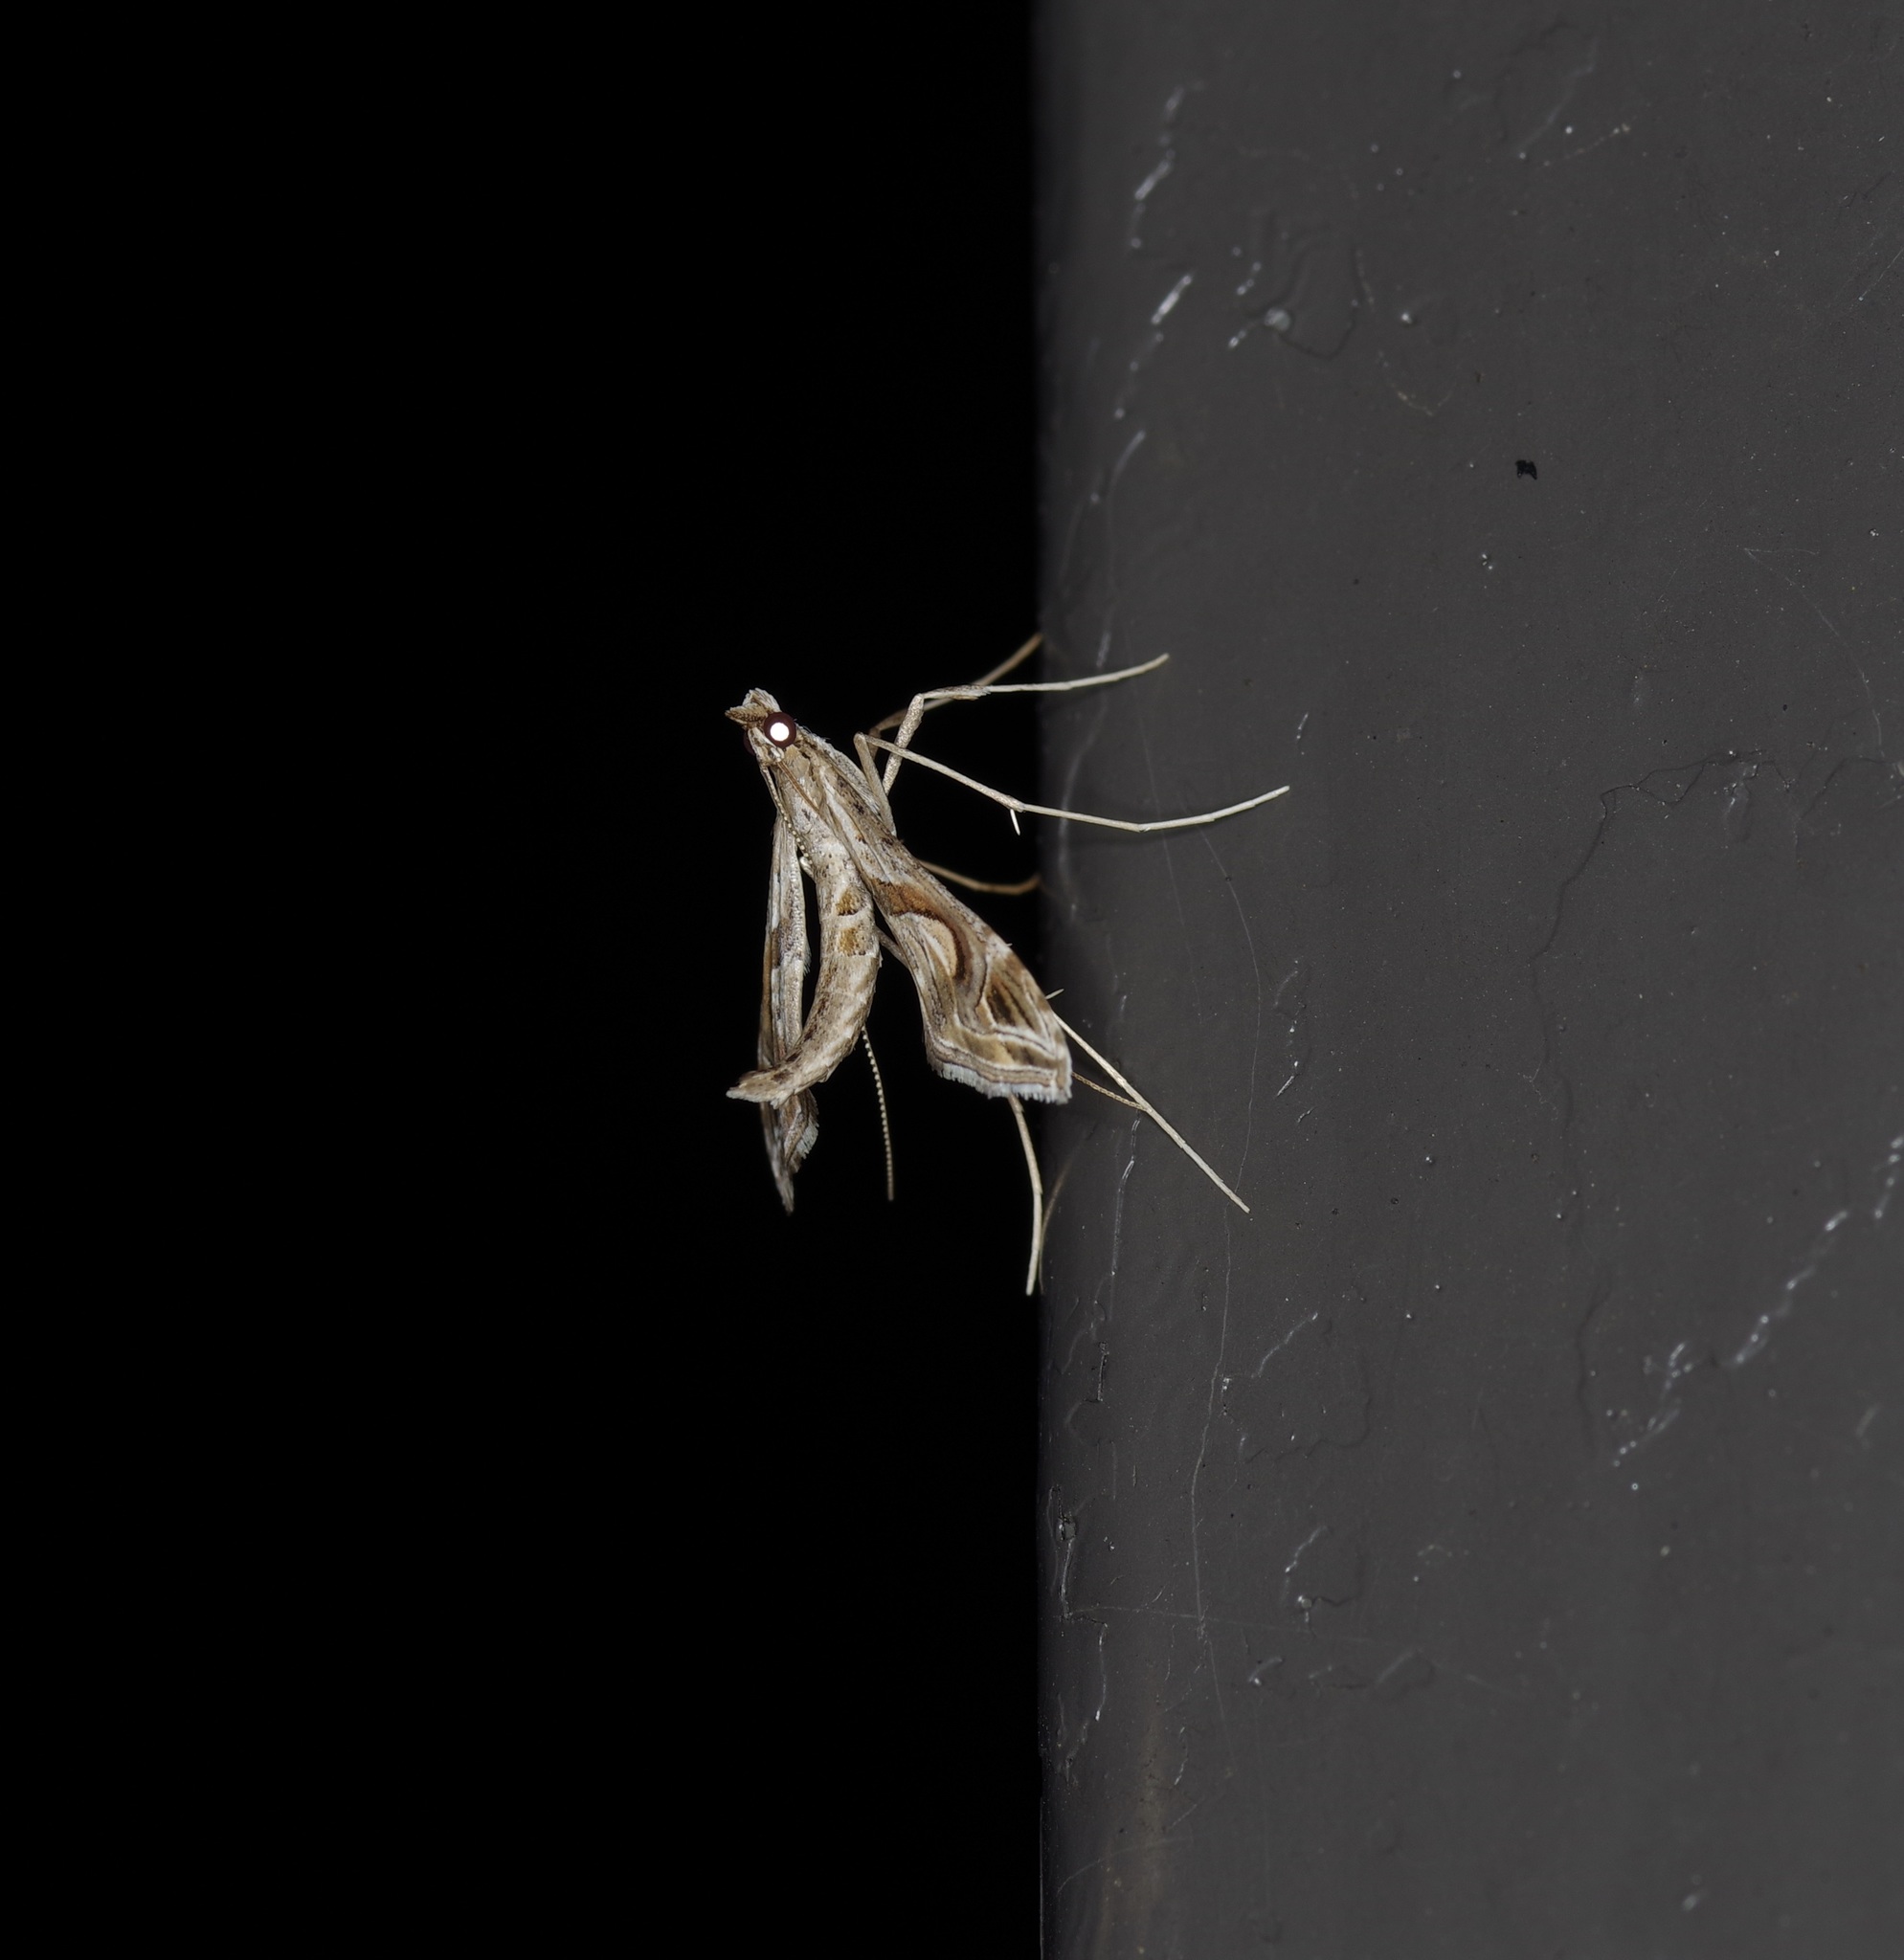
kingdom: Animalia
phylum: Arthropoda
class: Insecta
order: Lepidoptera
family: Crambidae
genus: Lineodes
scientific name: Lineodes integra
